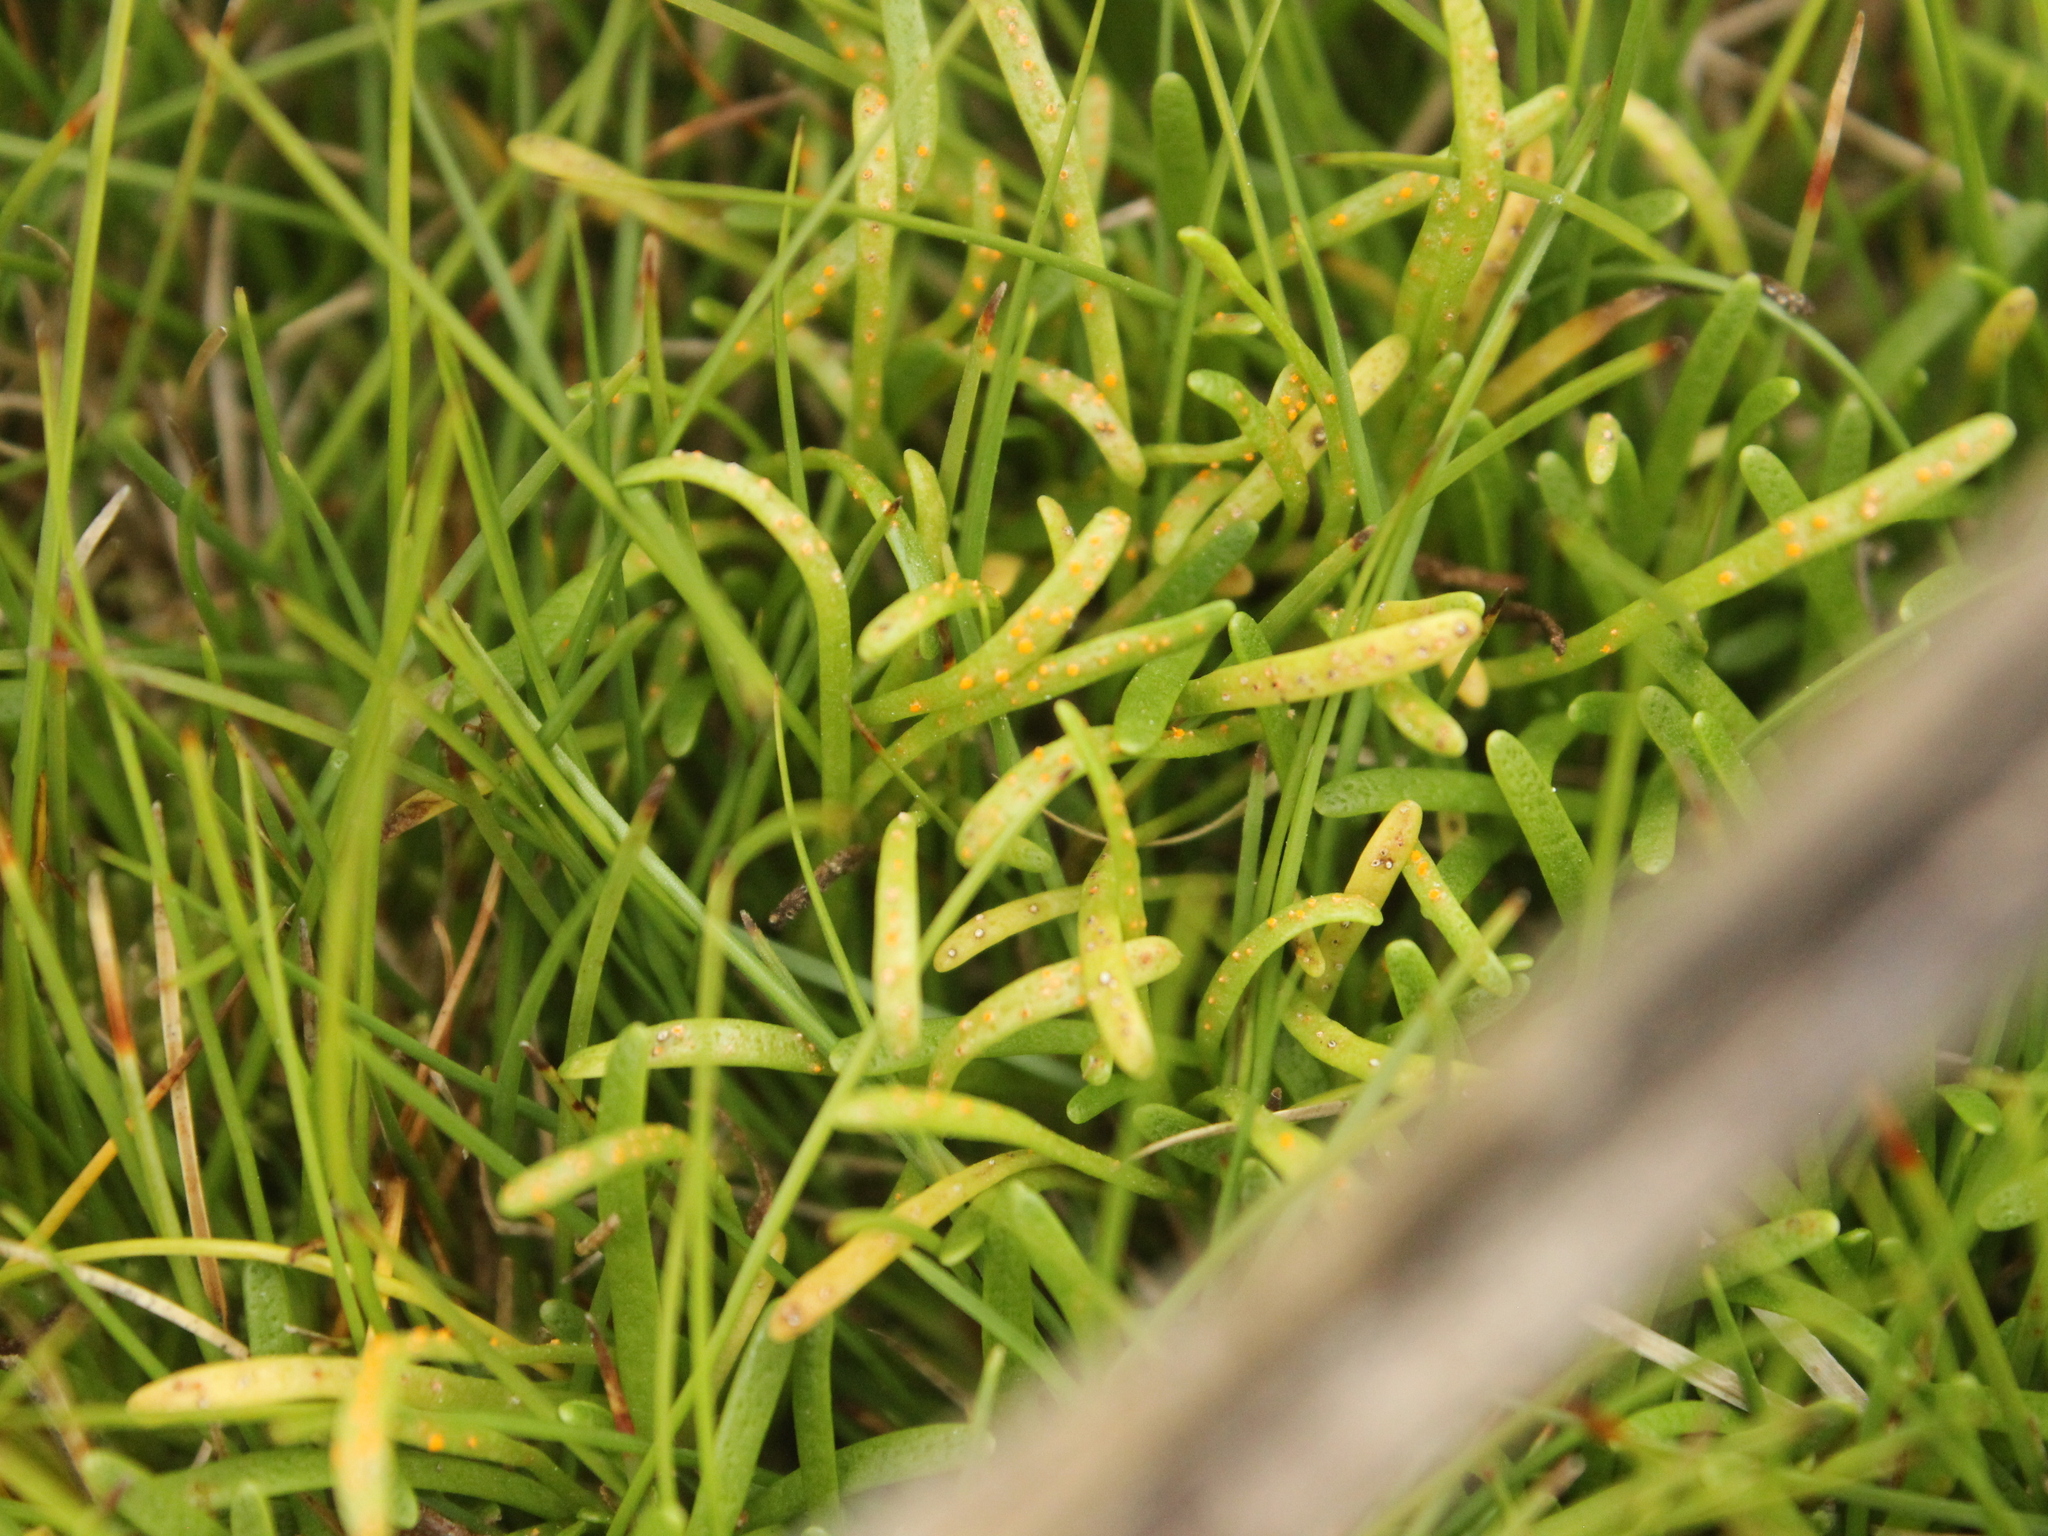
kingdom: Fungi
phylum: Basidiomycota
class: Pucciniomycetes
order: Pucciniales
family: Pucciniaceae
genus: Aecidium
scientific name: Aecidium monocystis
